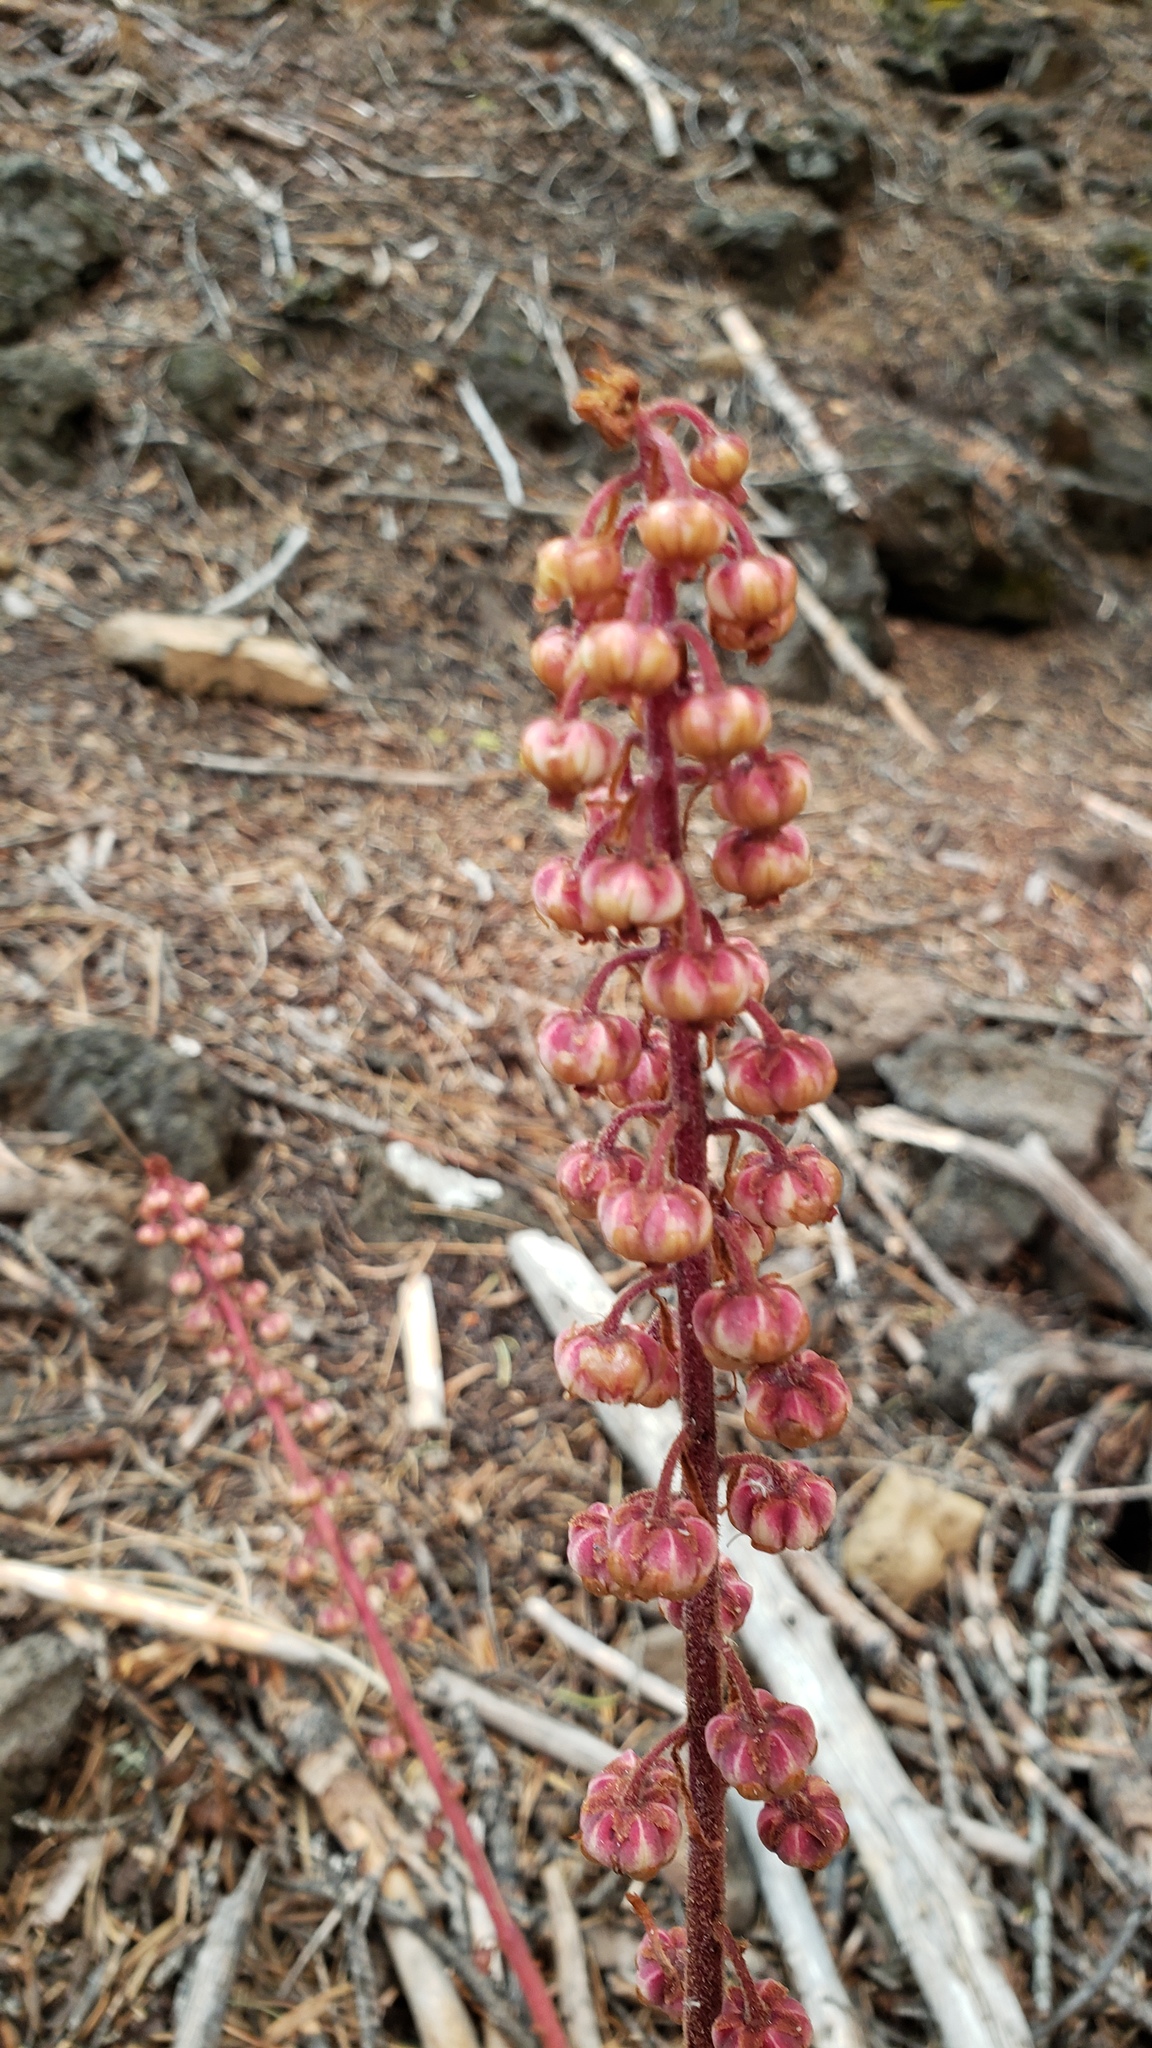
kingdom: Plantae
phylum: Tracheophyta
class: Magnoliopsida
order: Ericales
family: Ericaceae
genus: Pterospora
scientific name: Pterospora andromedea
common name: Giant bird's-nest
